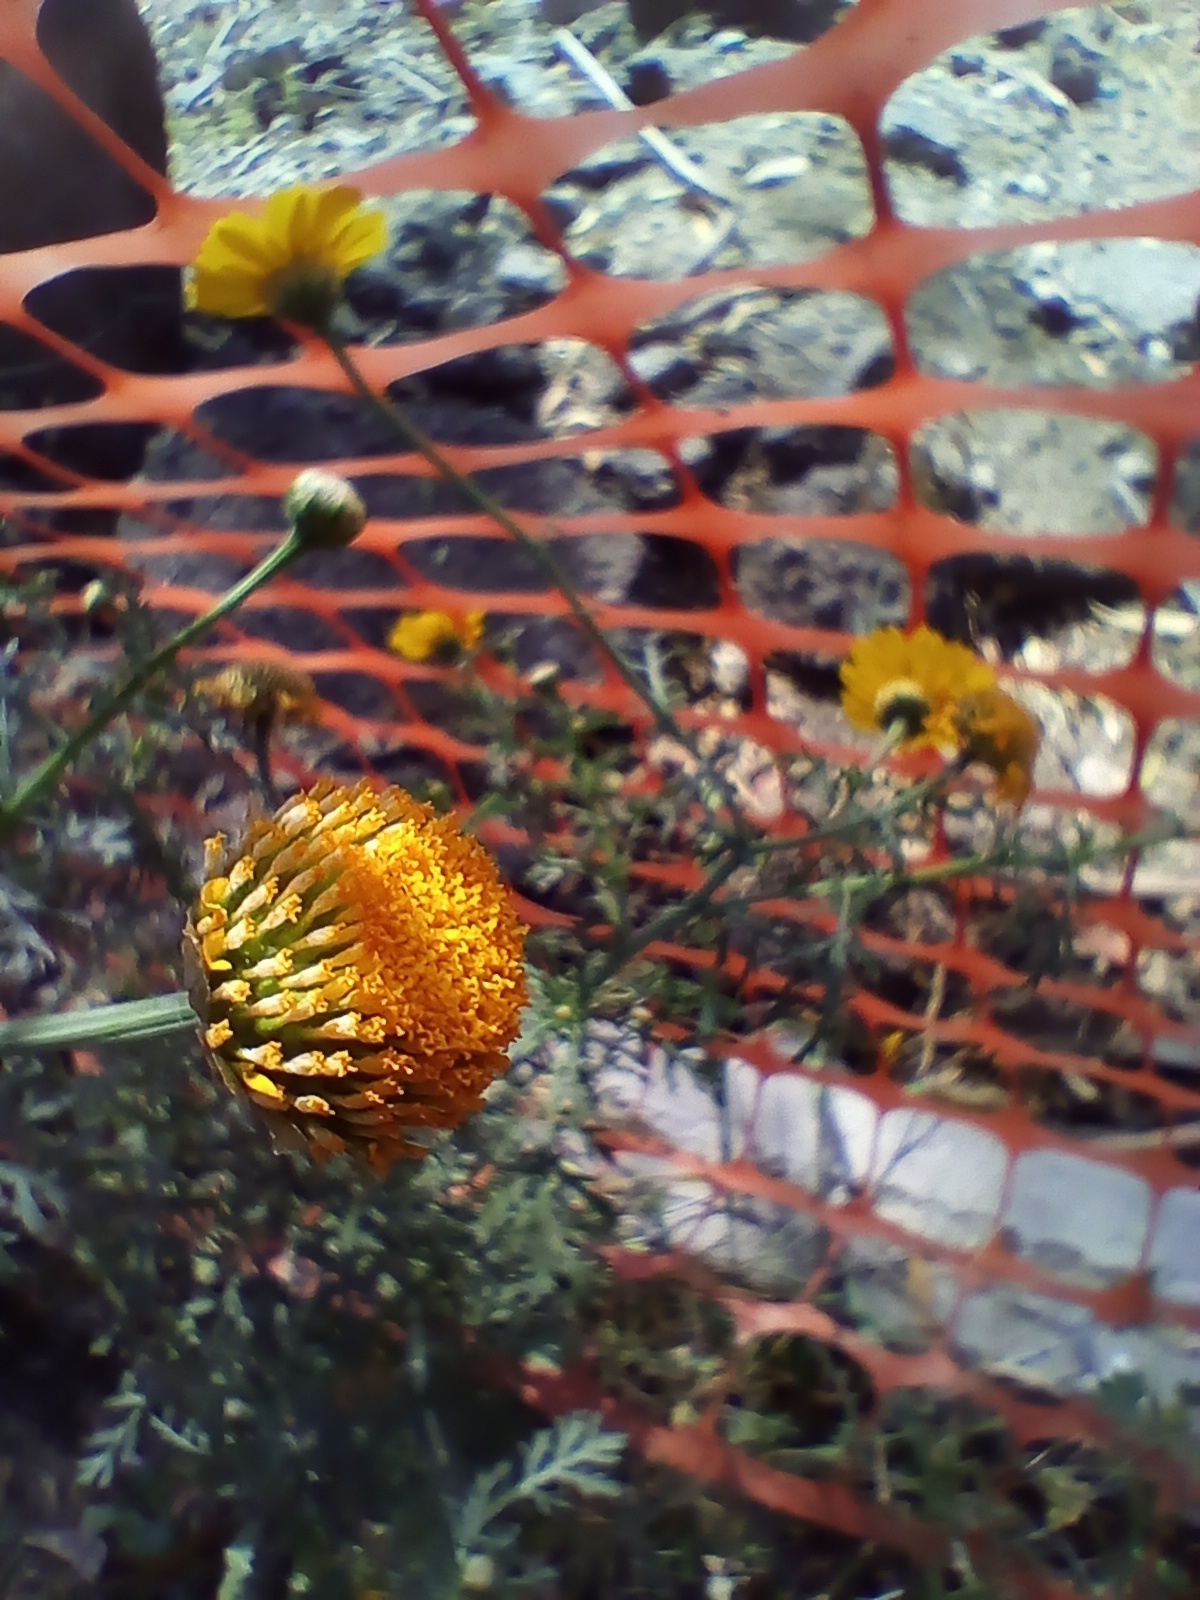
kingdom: Plantae
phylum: Tracheophyta
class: Magnoliopsida
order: Asterales
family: Asteraceae
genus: Glebionis
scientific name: Glebionis coronaria
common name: Crowndaisy
